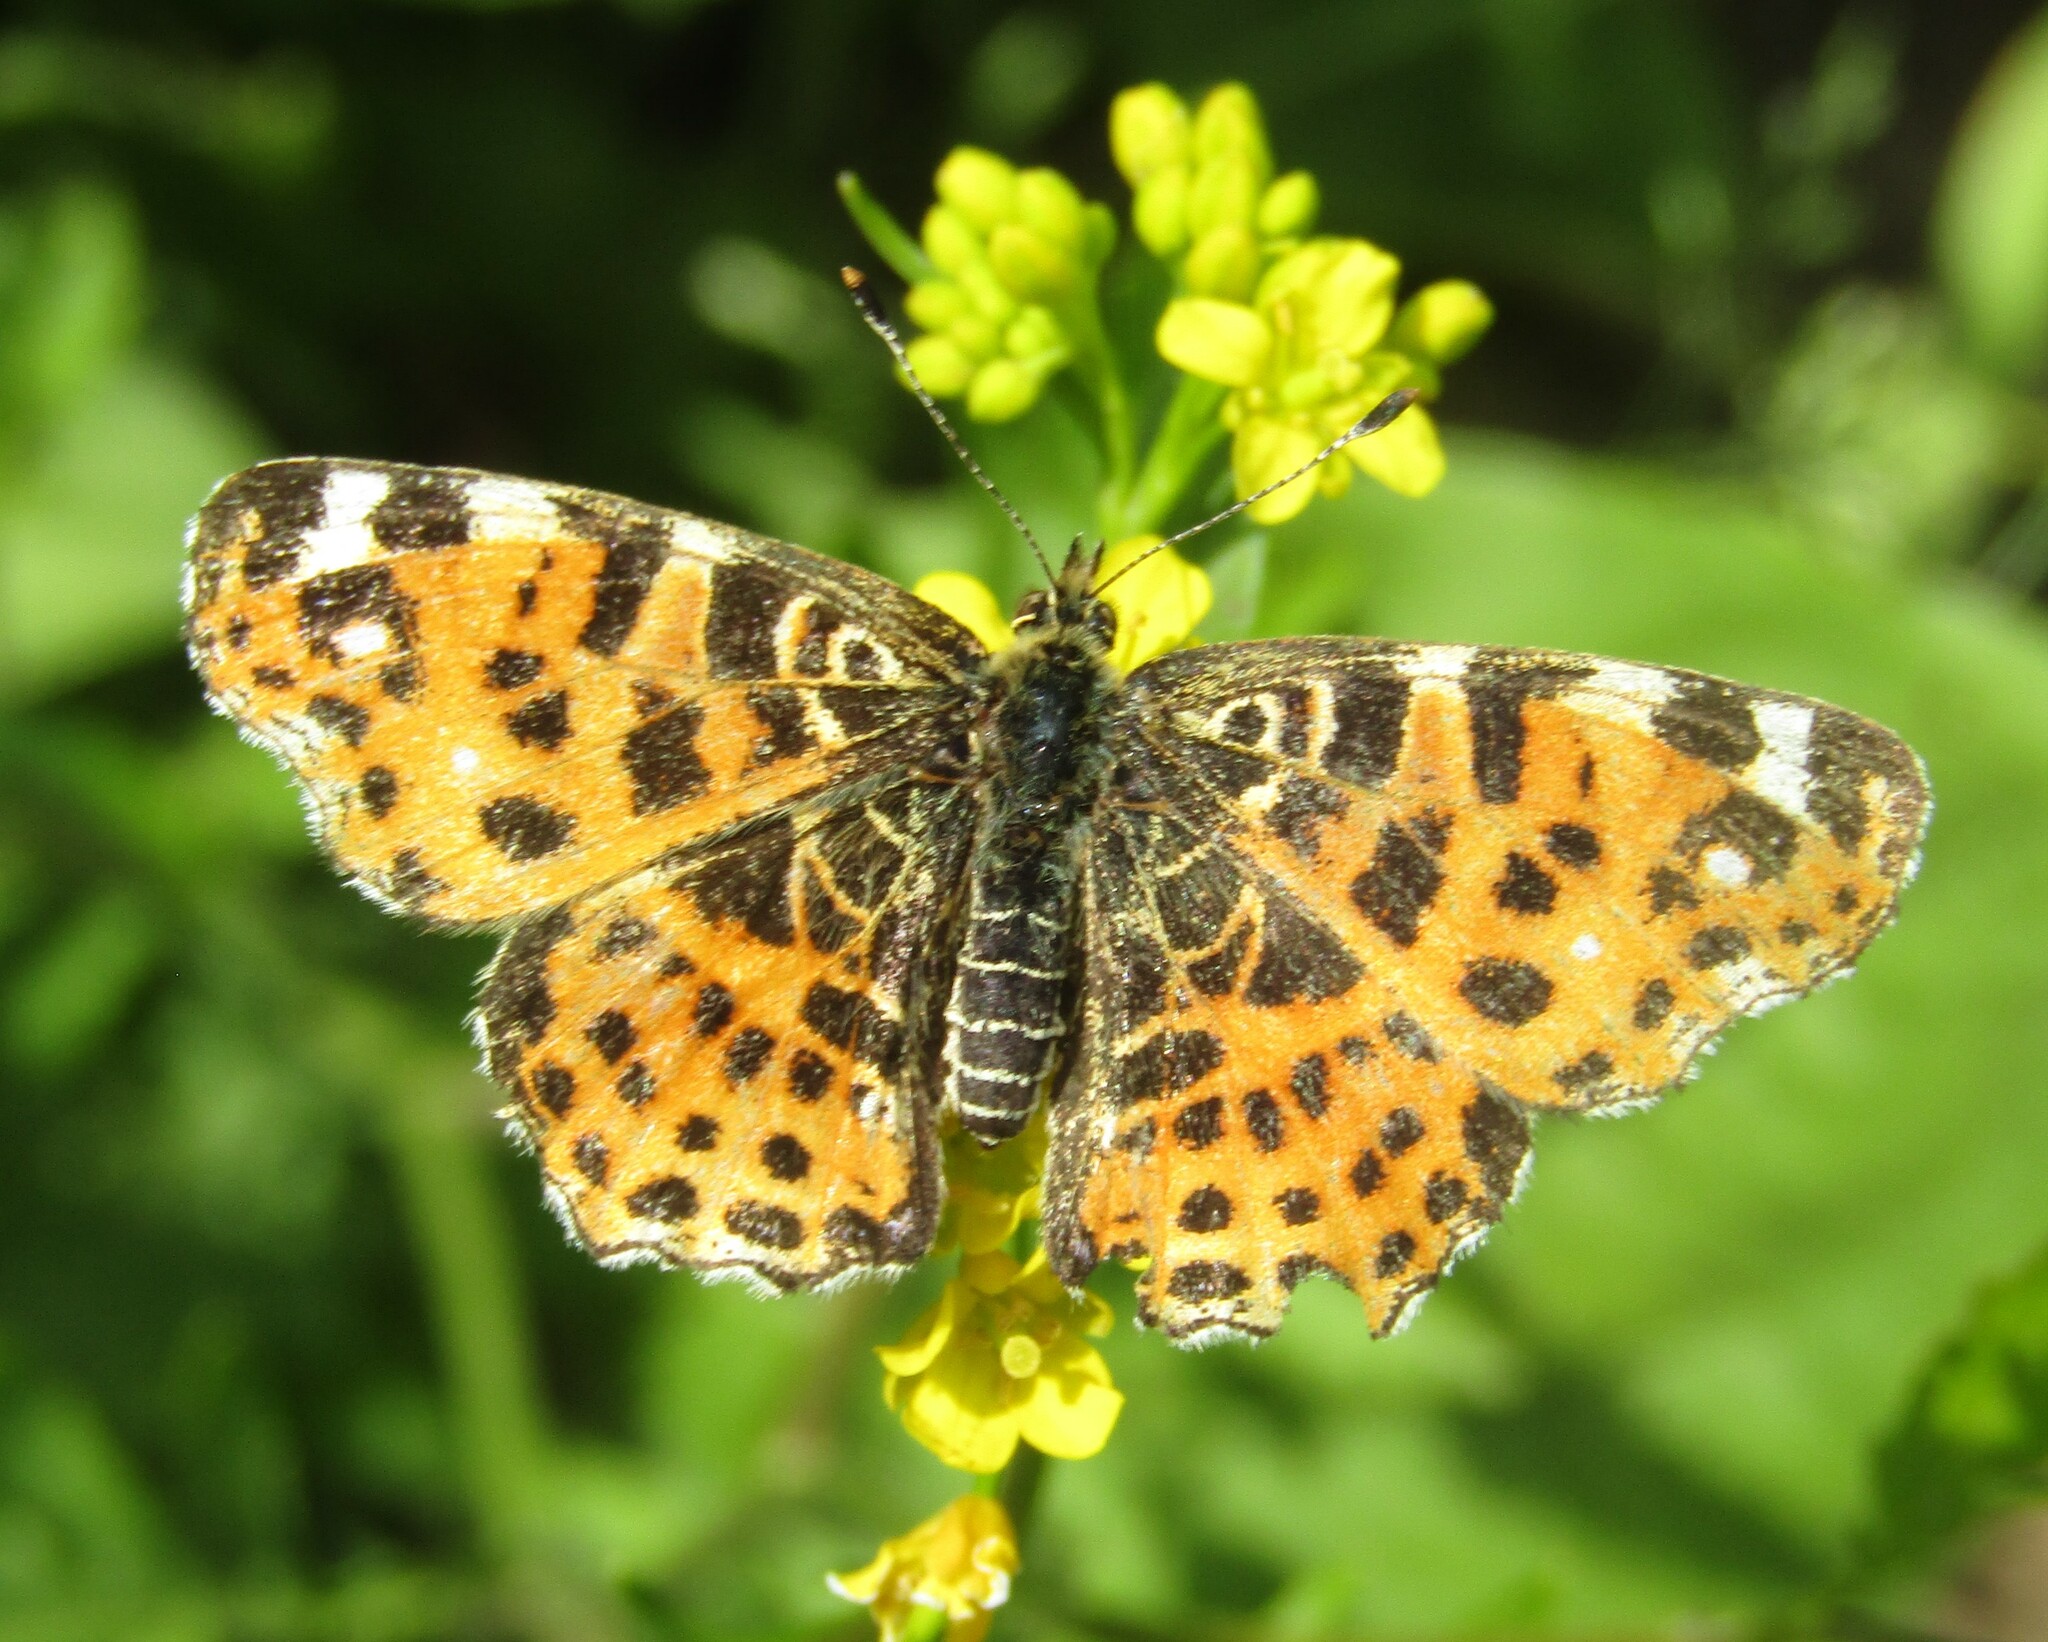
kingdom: Animalia
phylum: Arthropoda
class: Insecta
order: Lepidoptera
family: Nymphalidae
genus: Araschnia
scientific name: Araschnia levana
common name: Map butterfly
